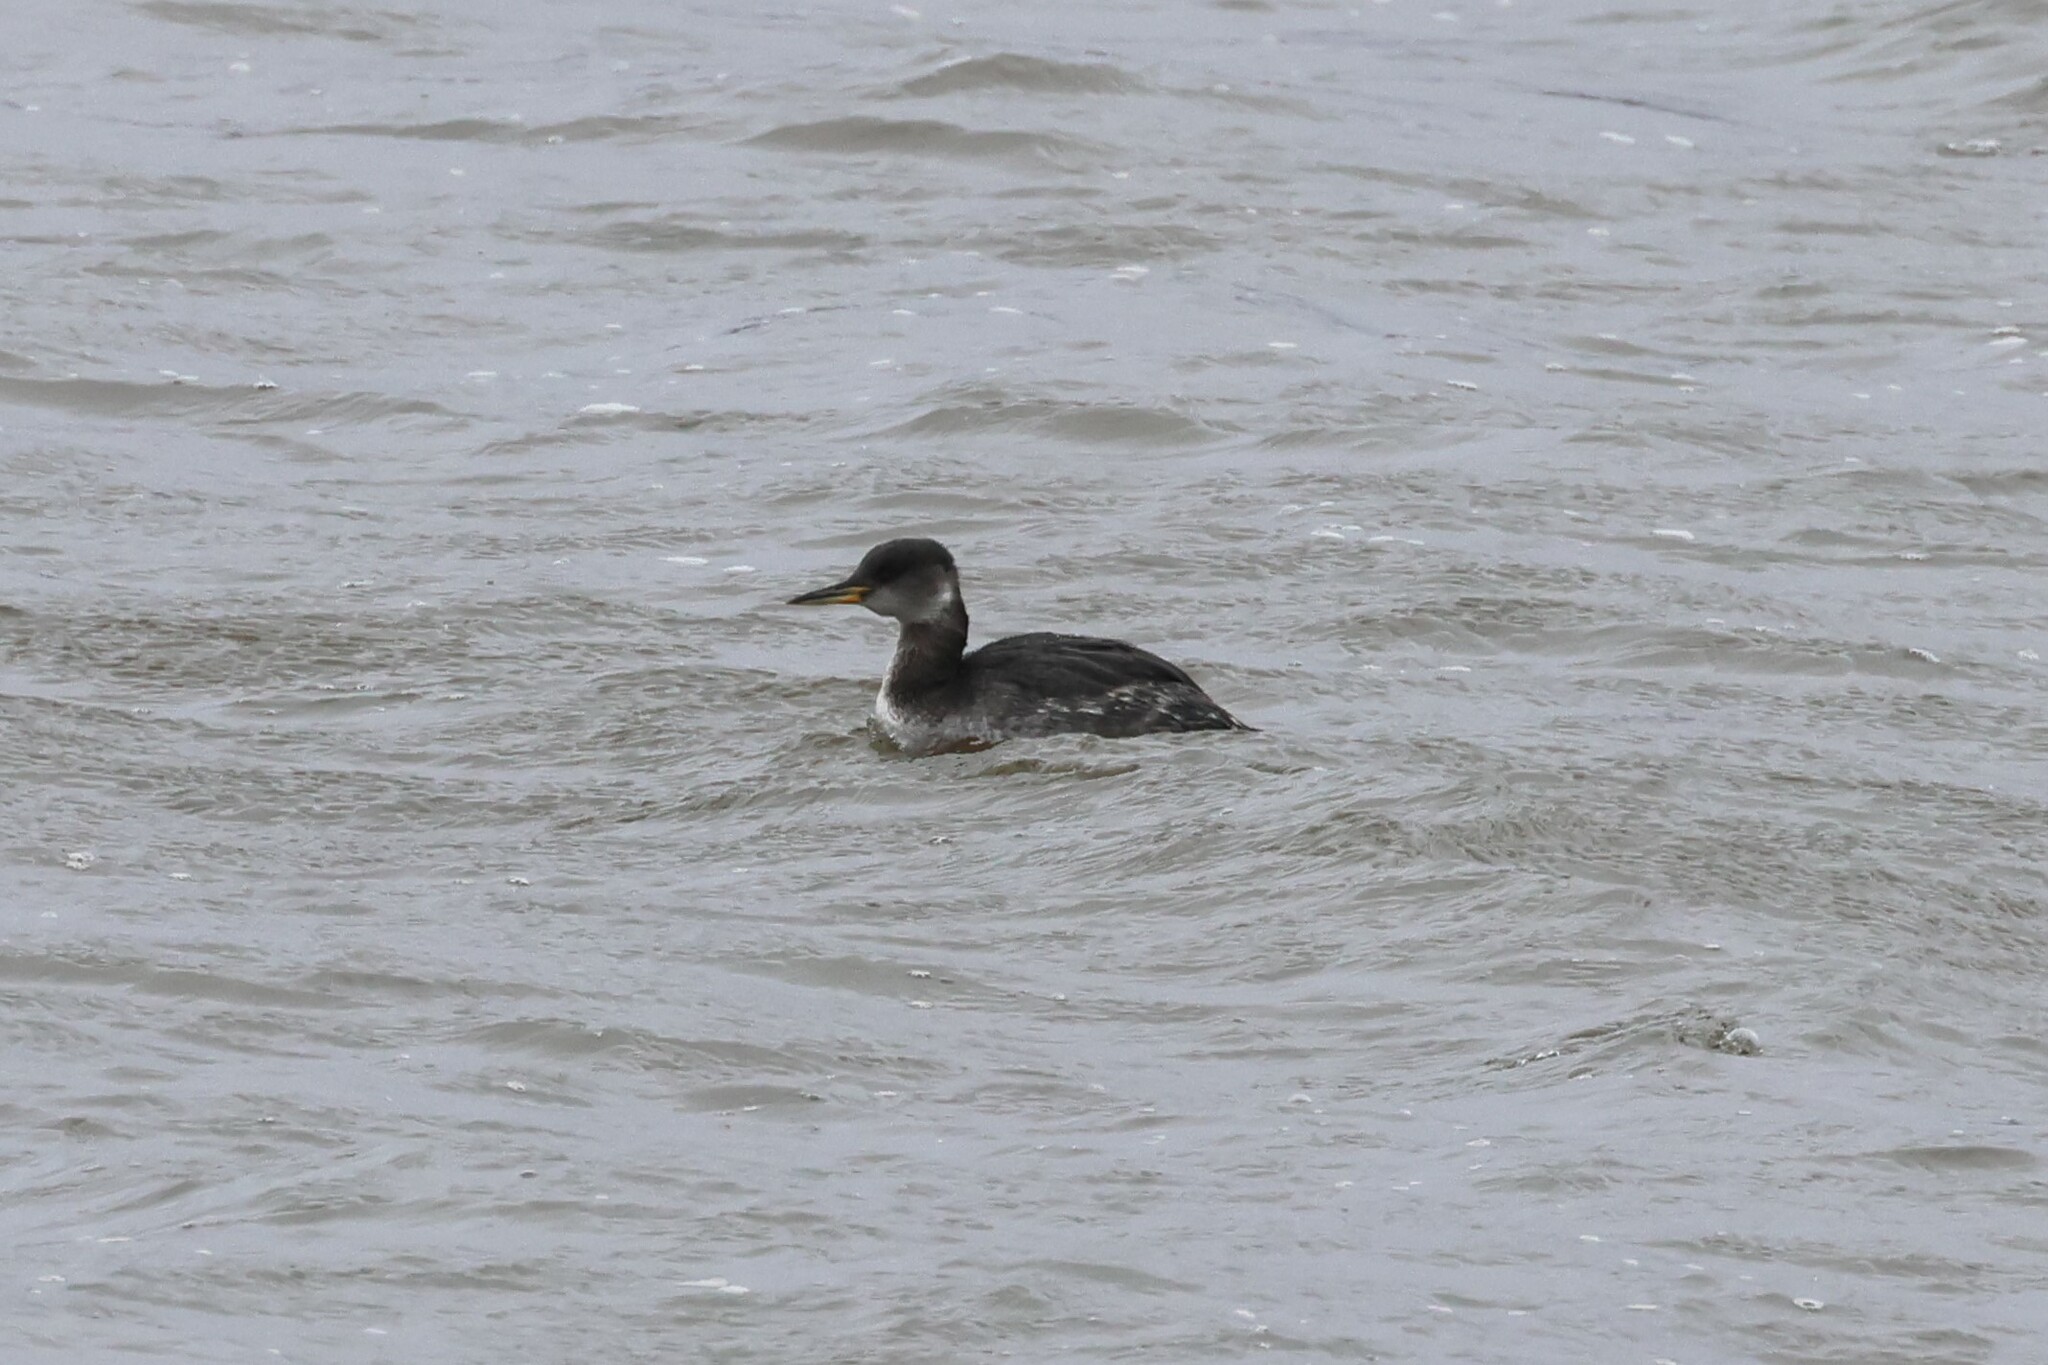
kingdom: Animalia
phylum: Chordata
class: Aves
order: Podicipediformes
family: Podicipedidae
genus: Podiceps
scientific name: Podiceps grisegena
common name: Red-necked grebe
